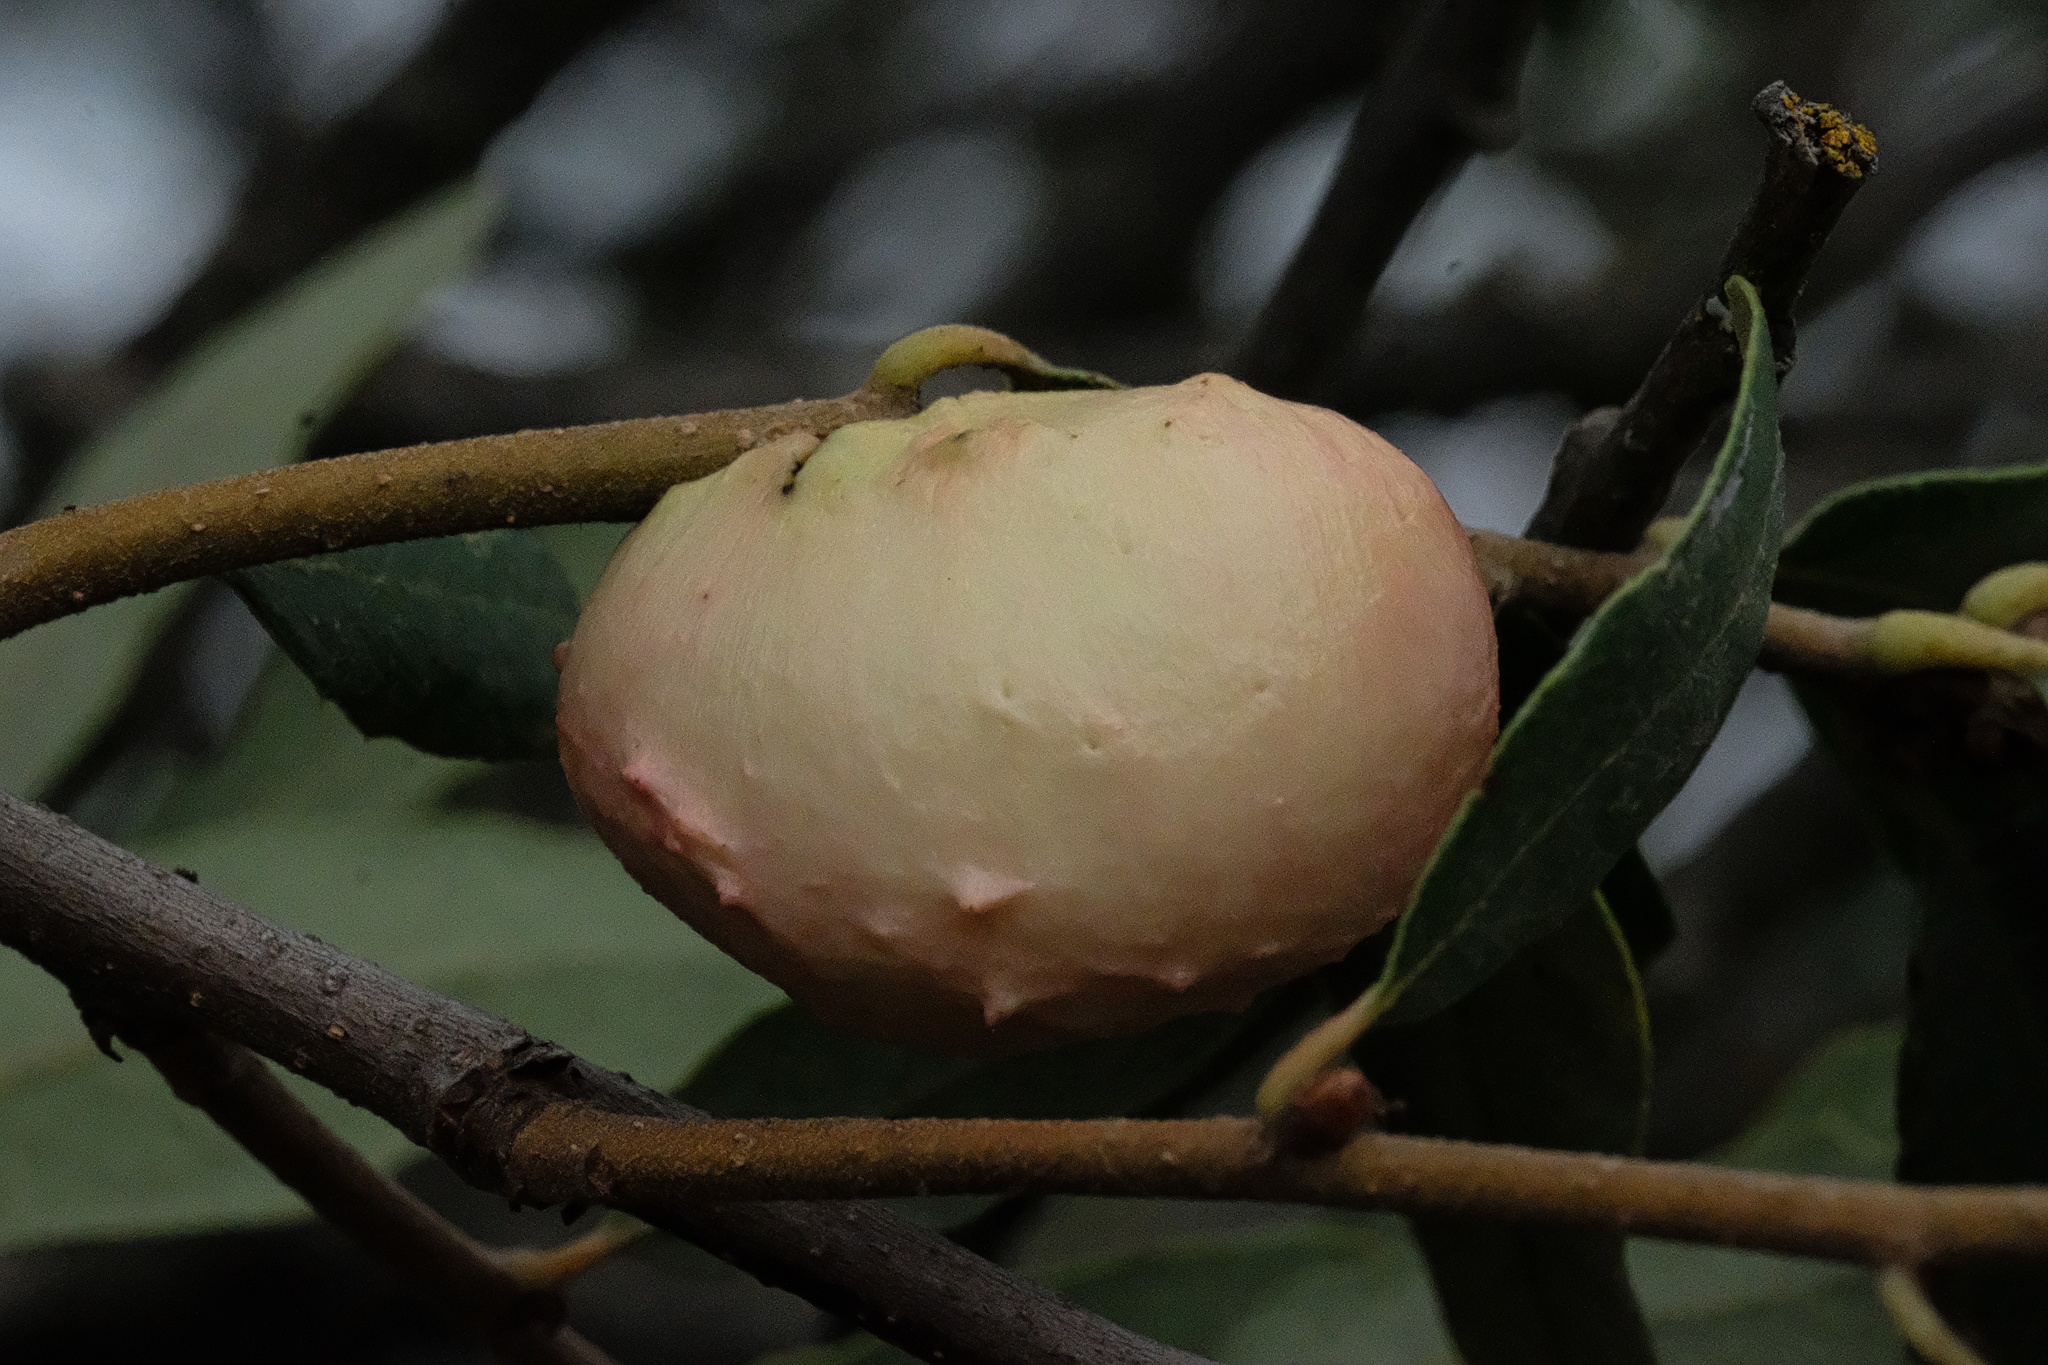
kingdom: Animalia
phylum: Arthropoda
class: Insecta
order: Hymenoptera
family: Cynipidae
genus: Andricus
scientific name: Andricus quercuscalifornicus
